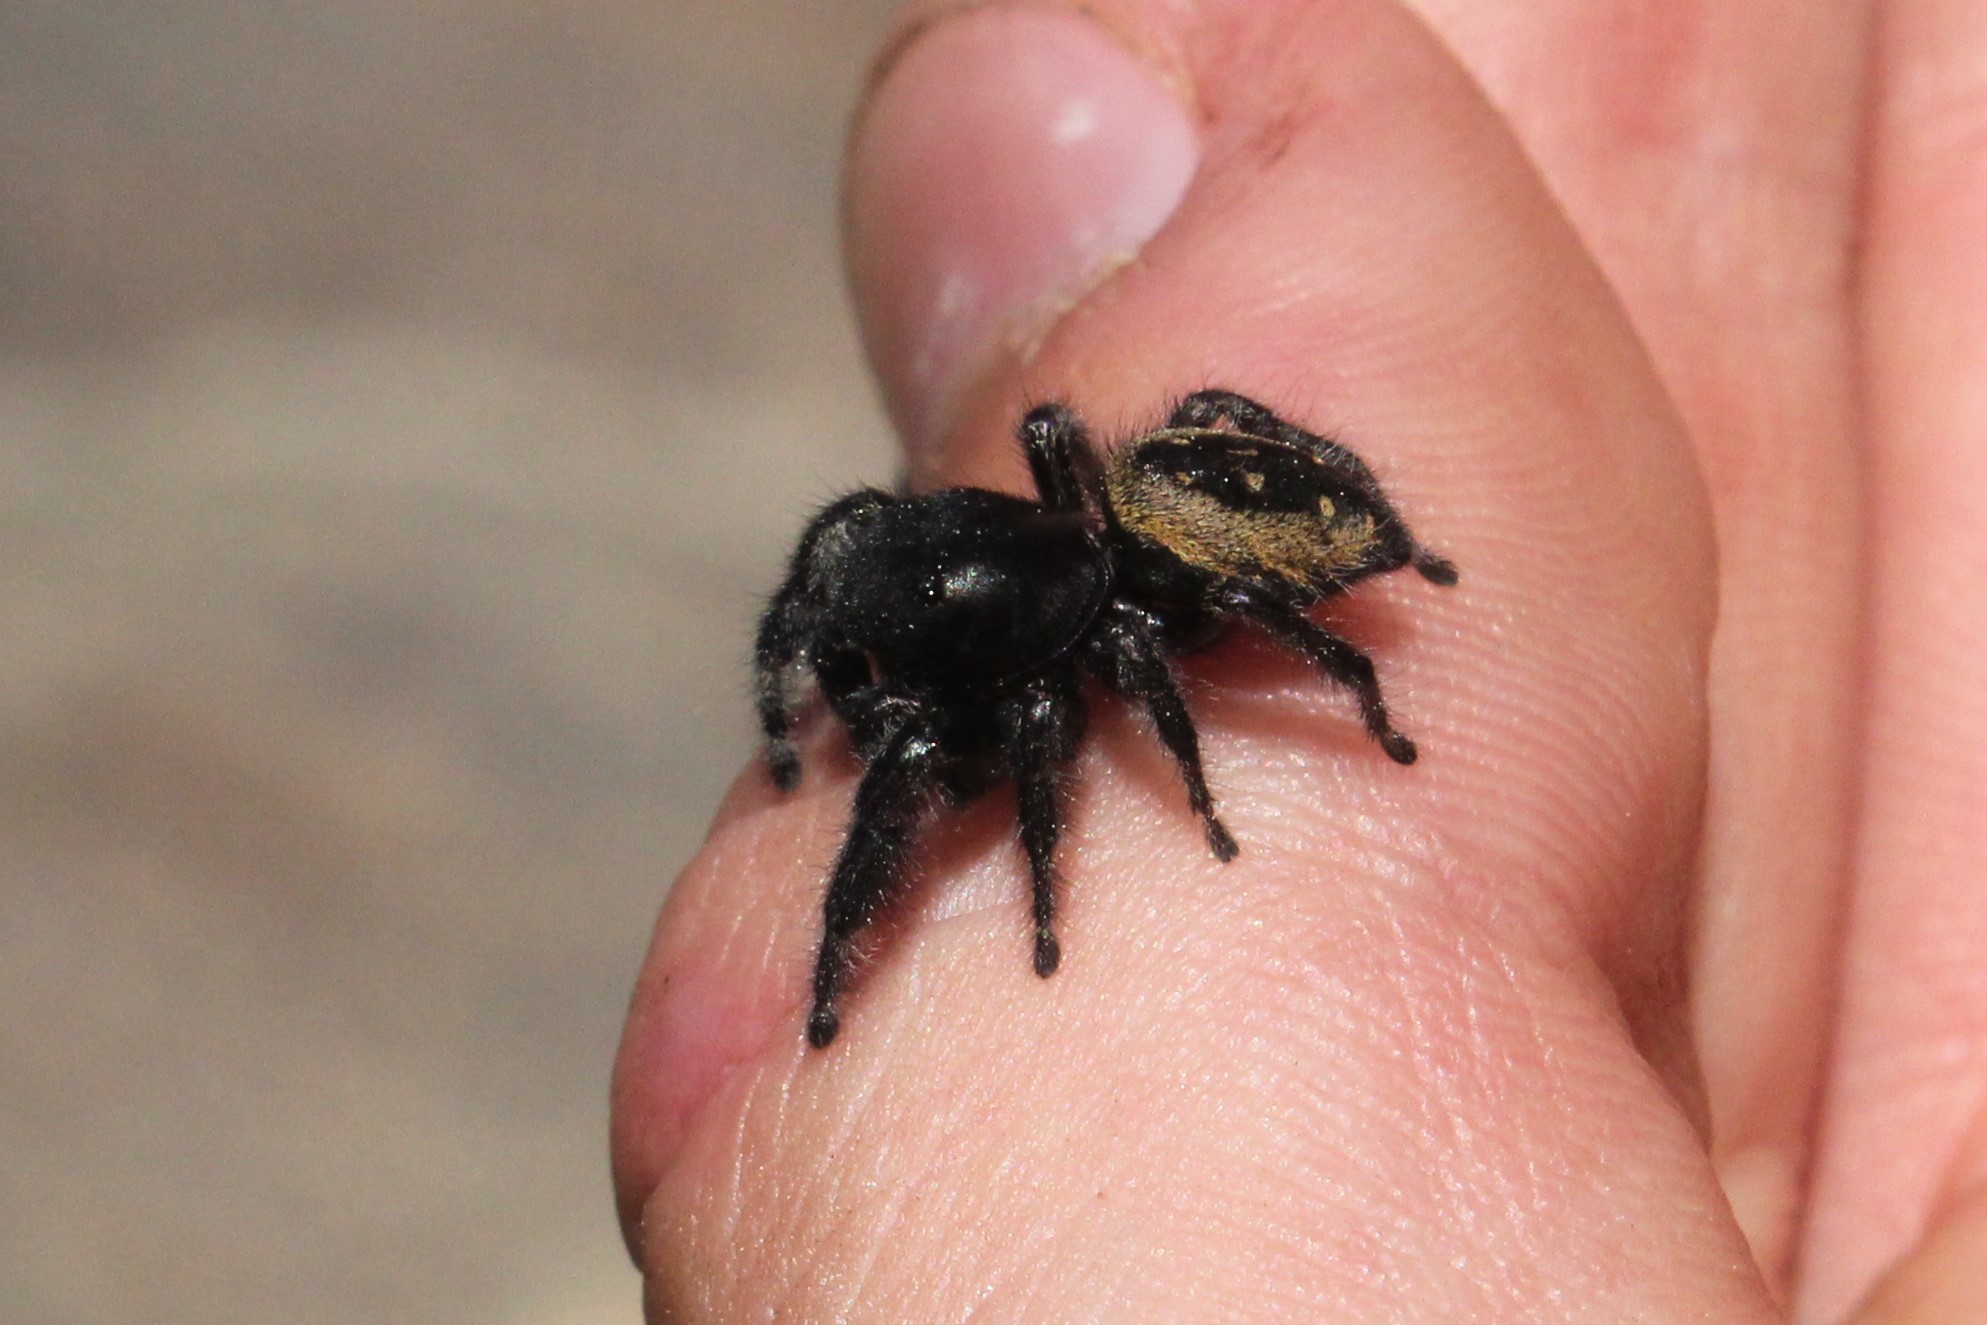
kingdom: Animalia
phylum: Arthropoda
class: Arachnida
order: Araneae
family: Salticidae
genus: Phidippus
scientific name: Phidippus purpuratus
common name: Marbled purple jumping spider
